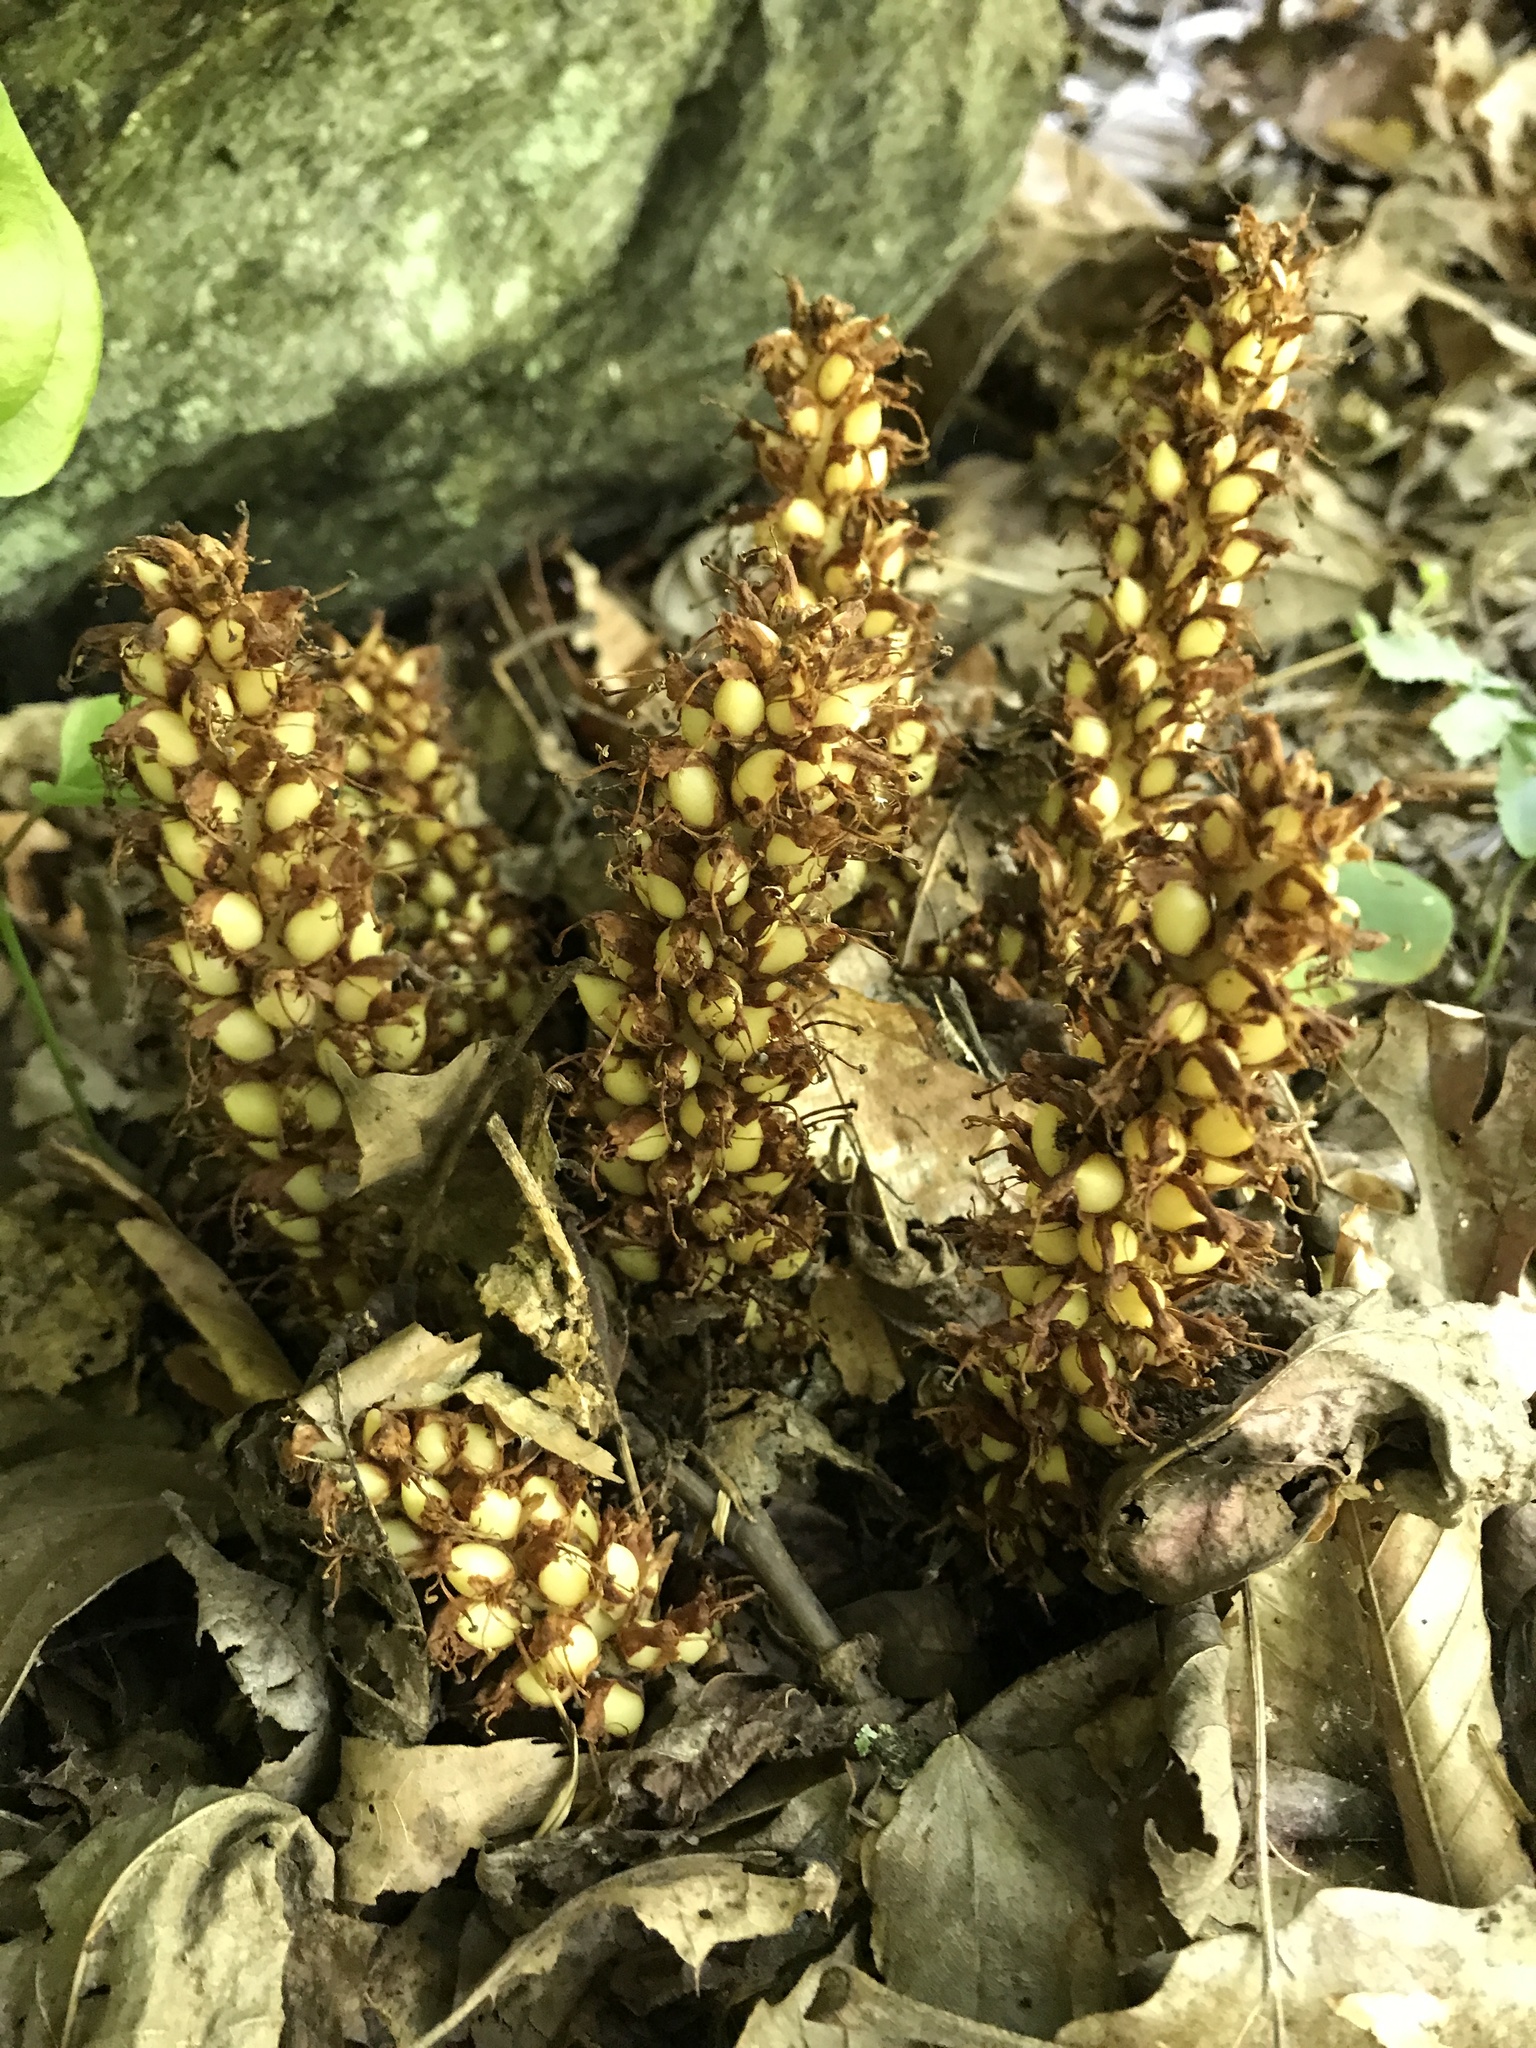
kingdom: Plantae
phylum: Tracheophyta
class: Magnoliopsida
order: Lamiales
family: Orobanchaceae
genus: Conopholis
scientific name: Conopholis americana
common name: American cancer-root
